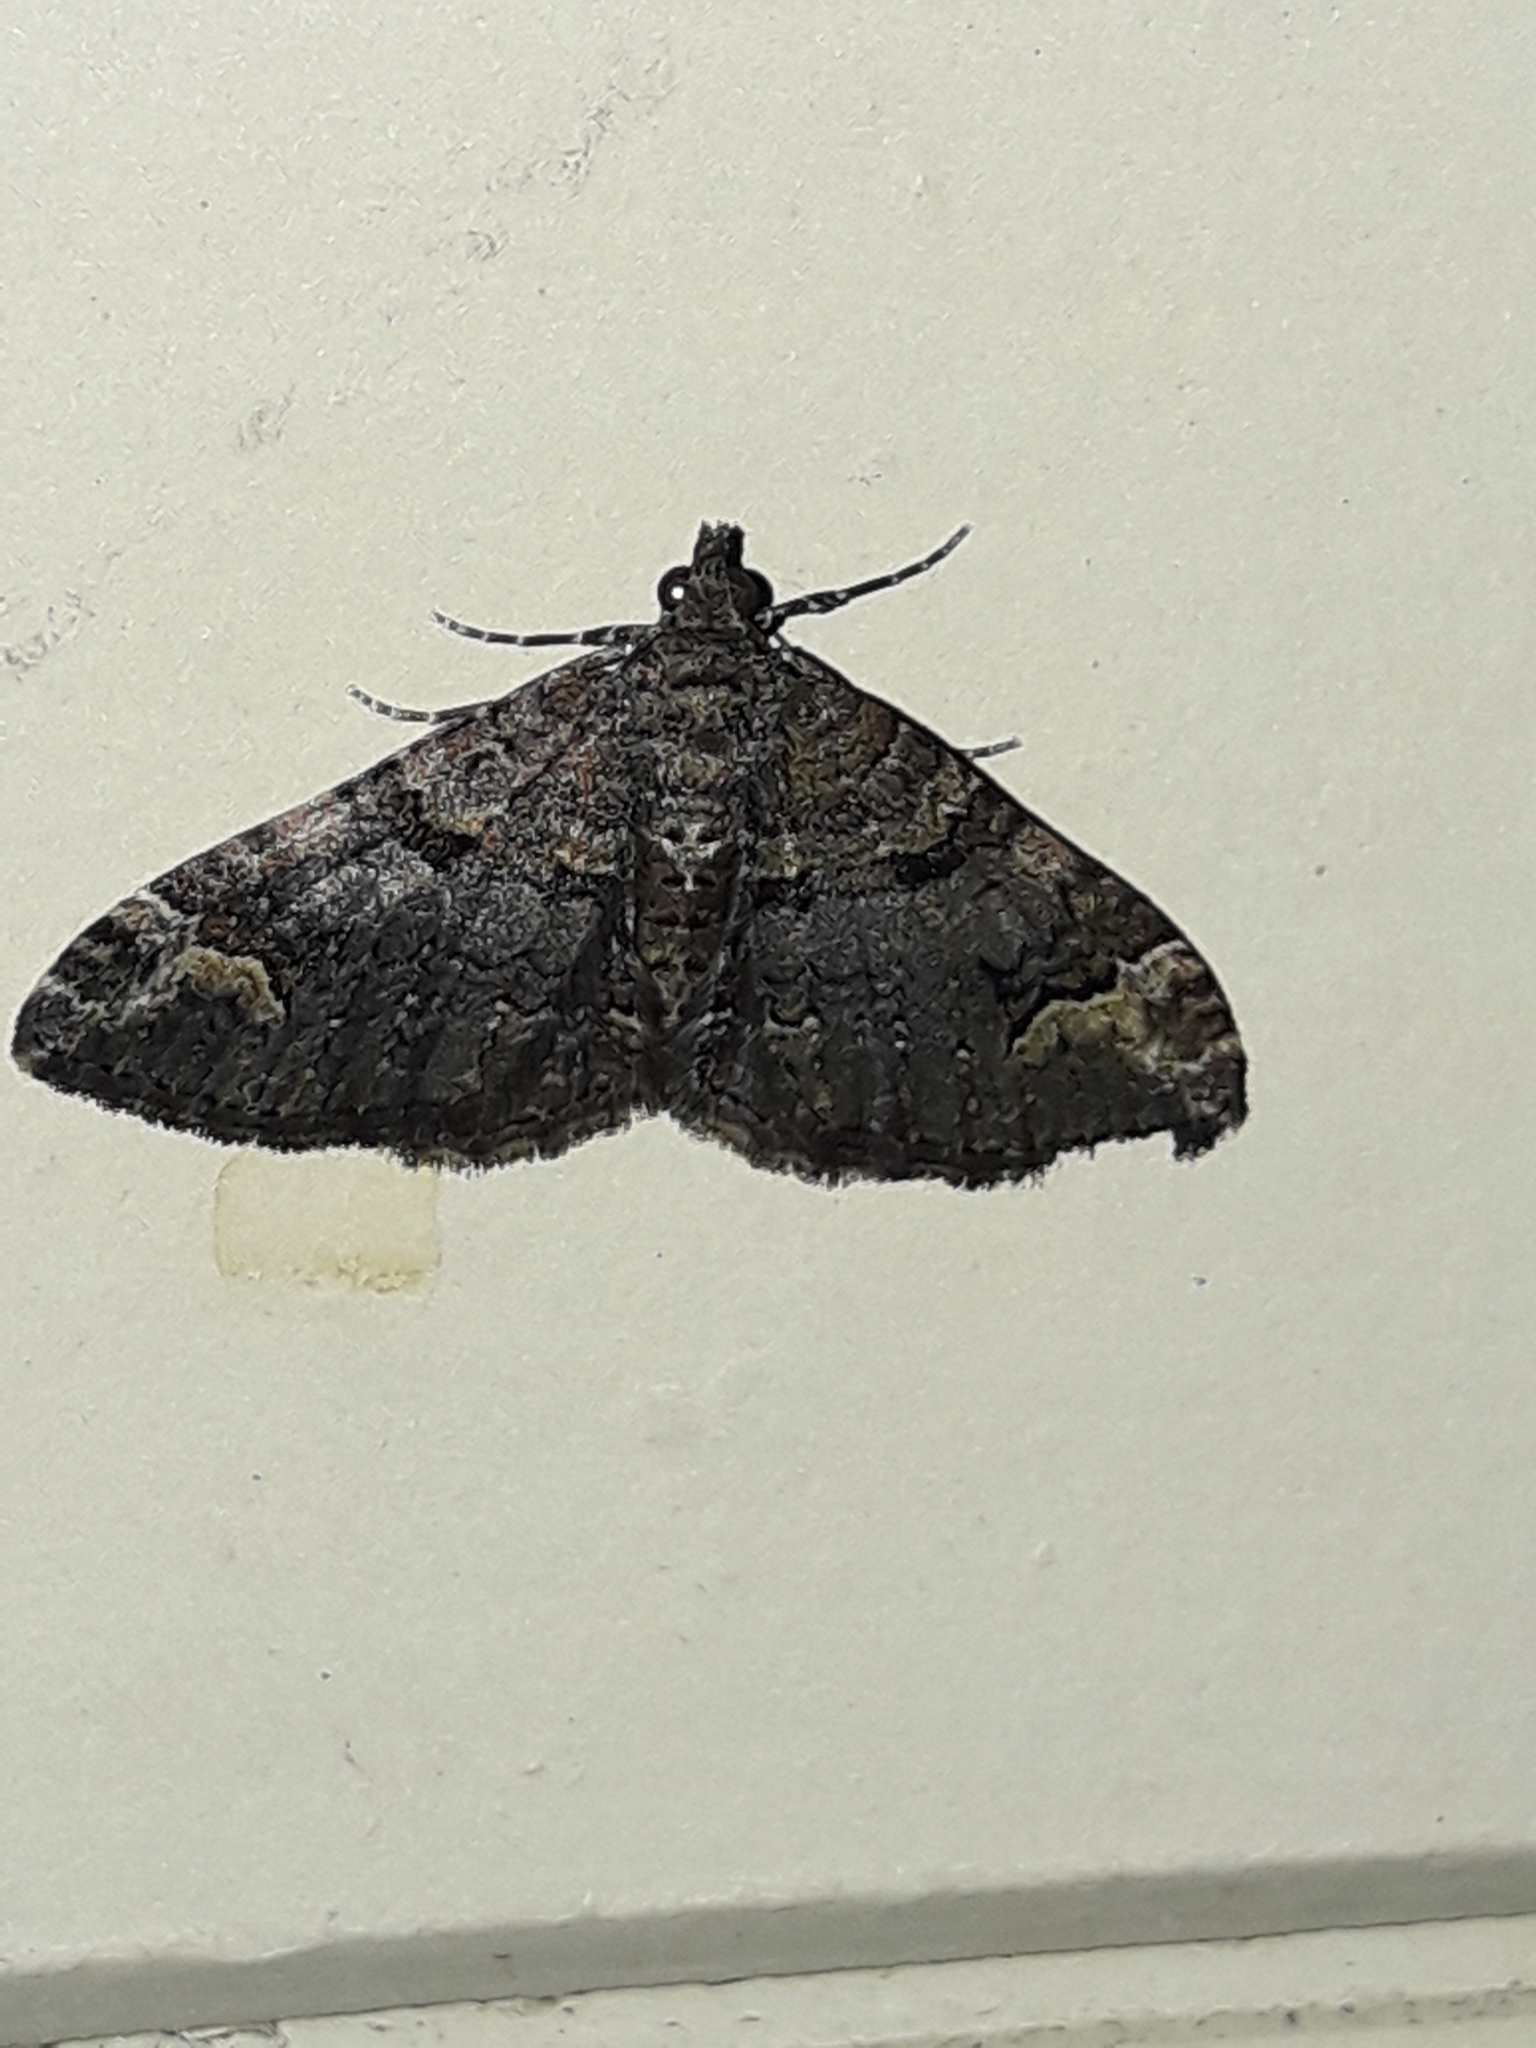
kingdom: Animalia
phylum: Arthropoda
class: Insecta
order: Lepidoptera
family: Geometridae
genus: Epyaxa
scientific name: Epyaxa sodaliata
